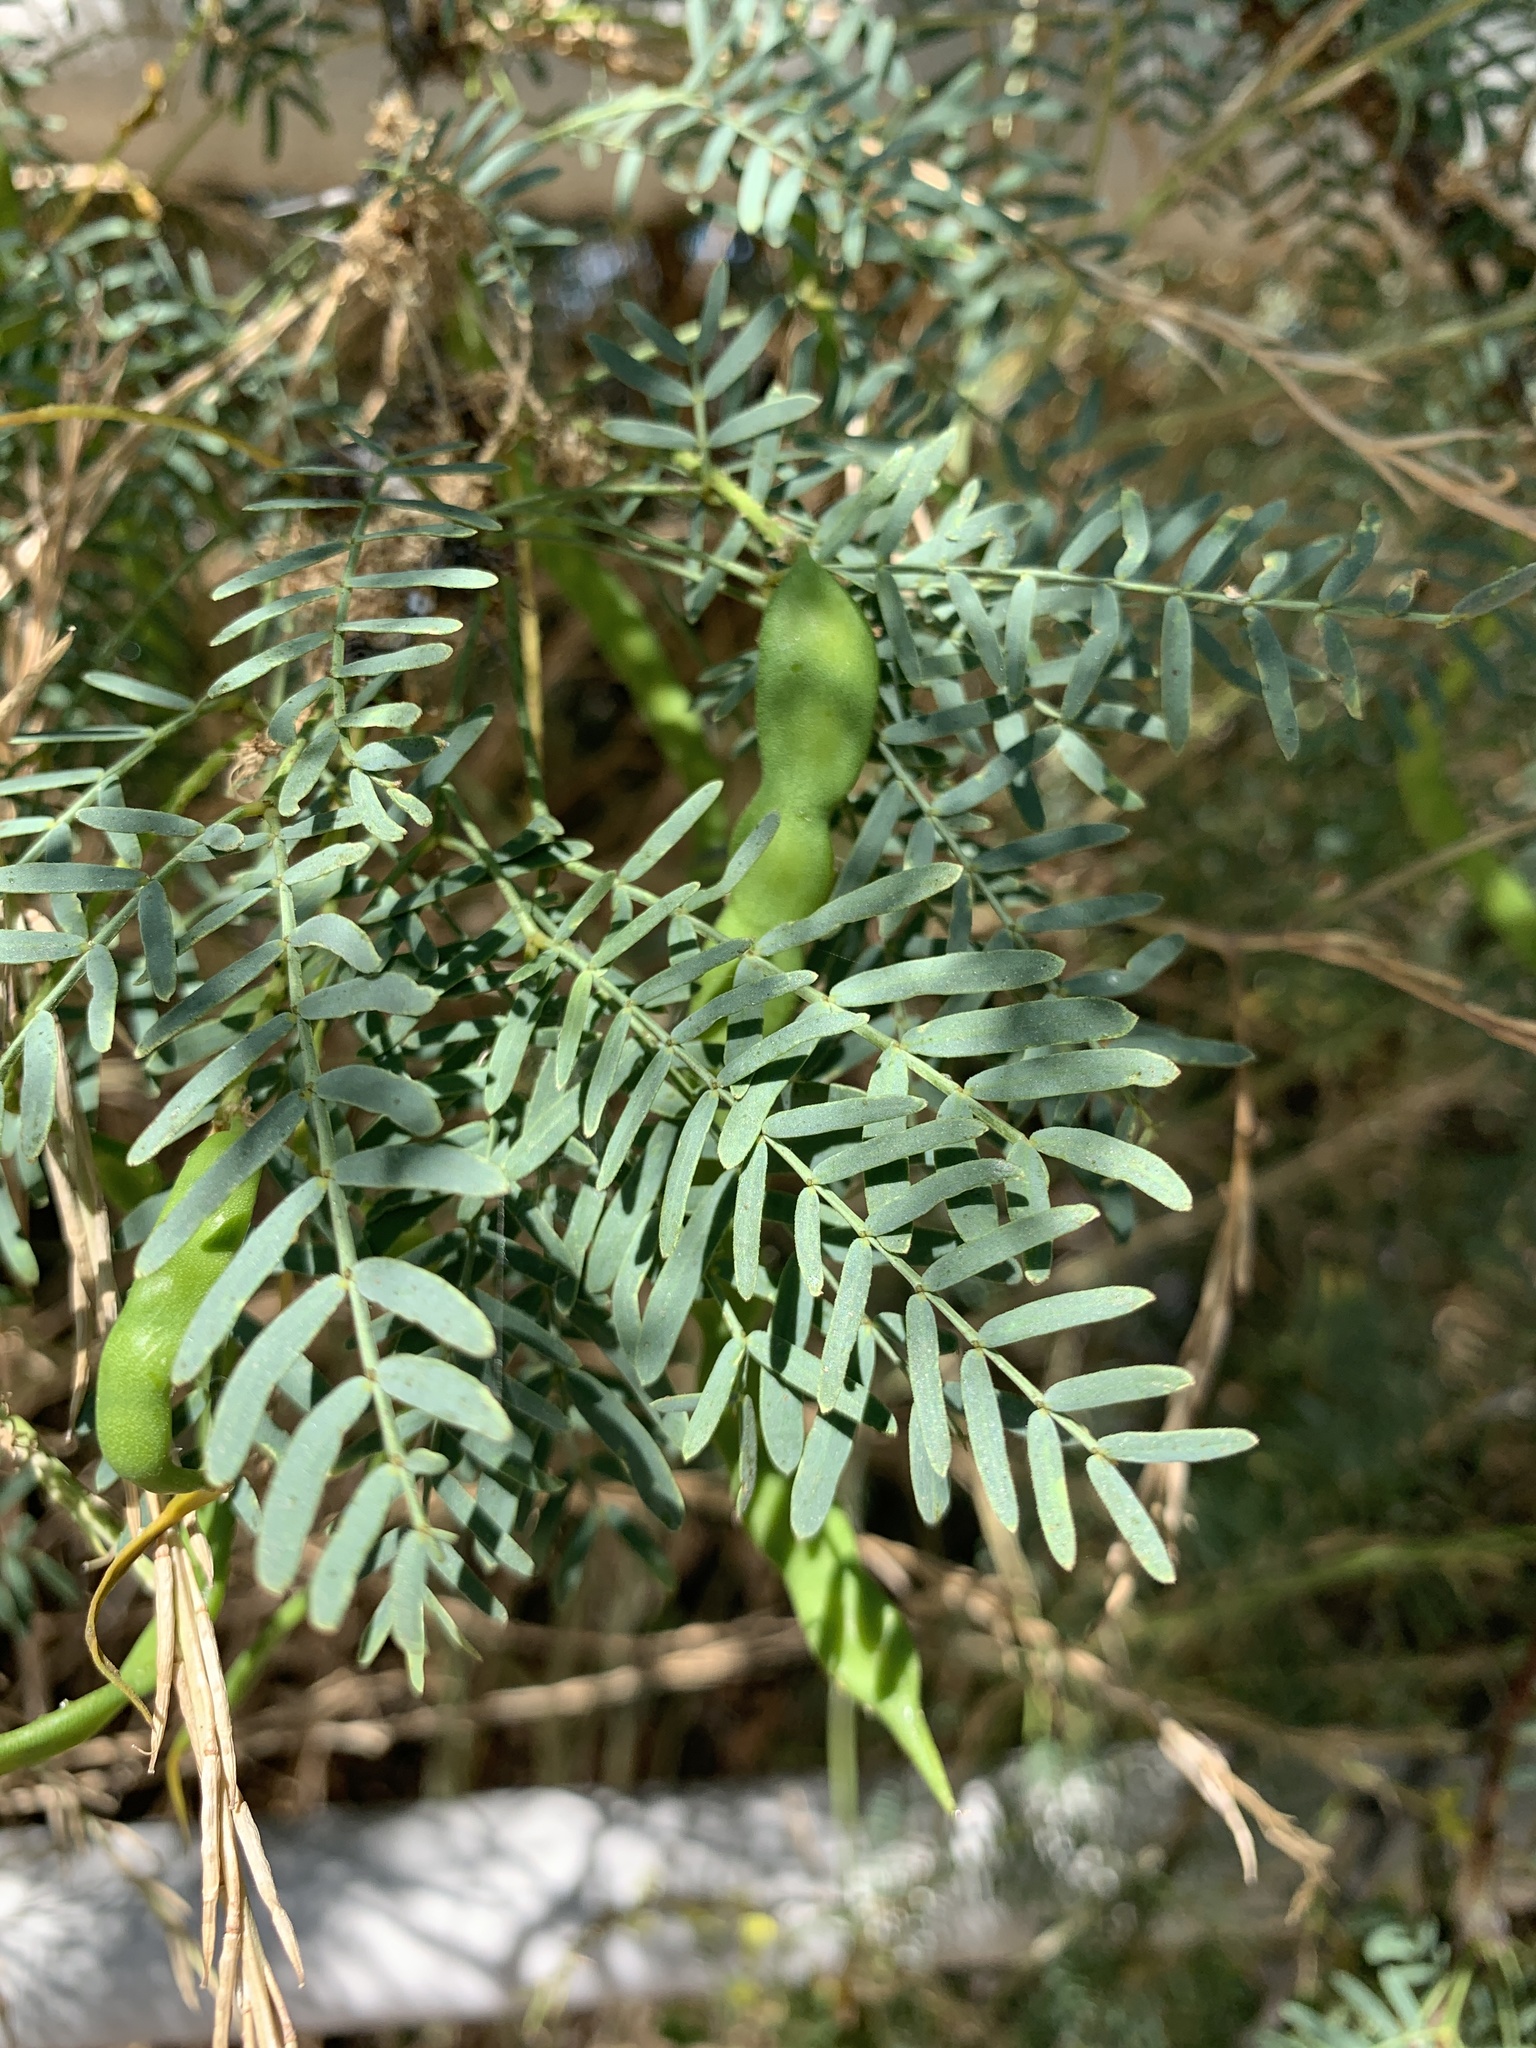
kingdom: Plantae
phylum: Tracheophyta
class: Magnoliopsida
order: Fabales
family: Fabaceae
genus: Prosopis
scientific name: Prosopis glandulosa
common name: Honey mesquite
